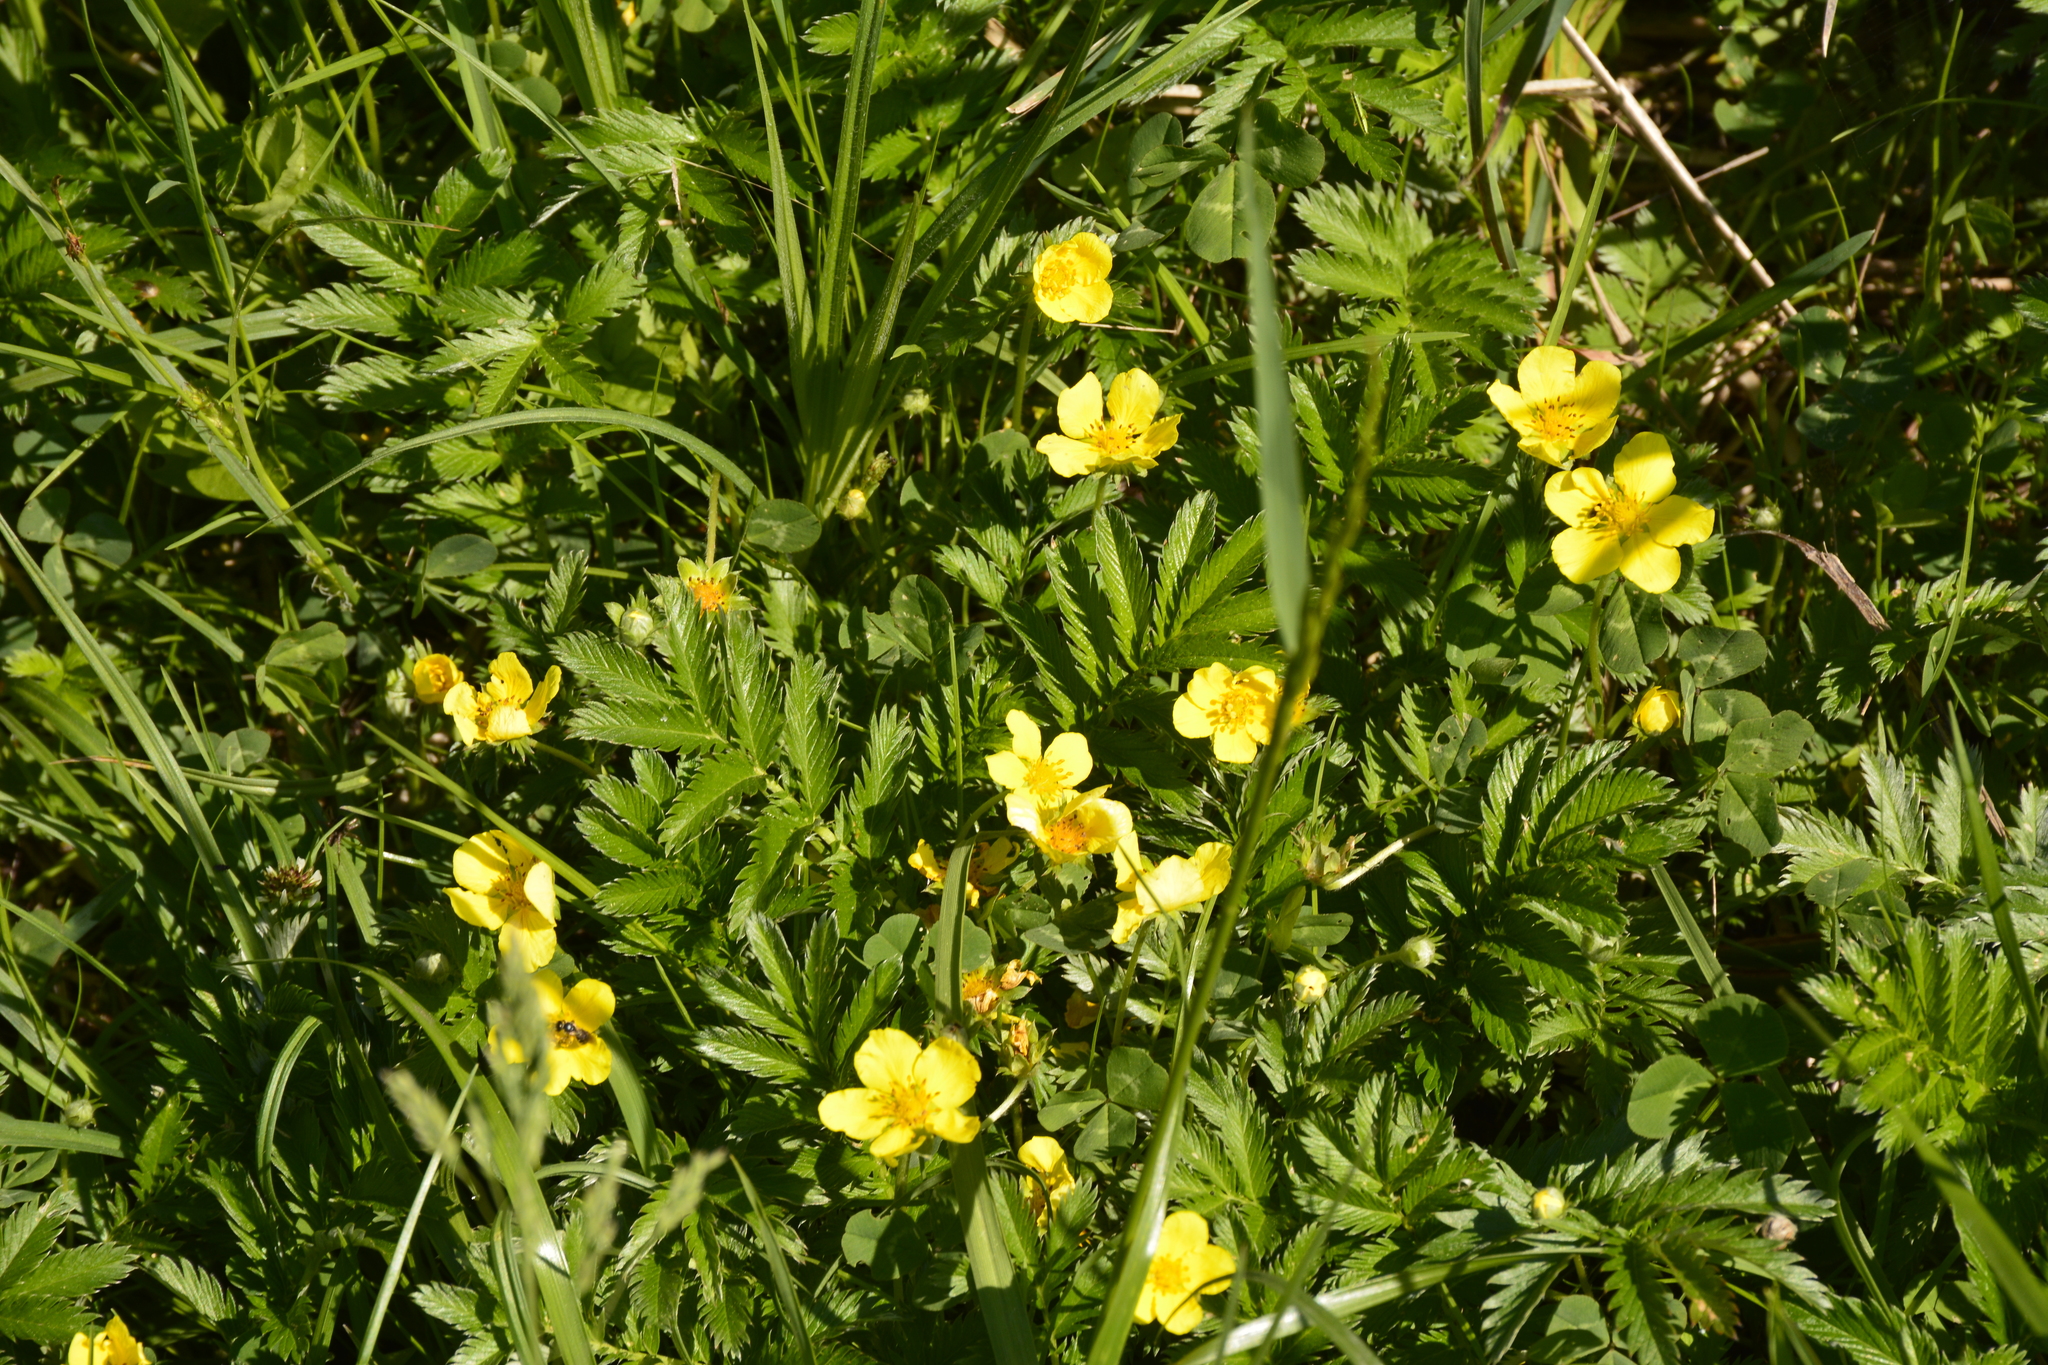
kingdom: Plantae
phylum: Tracheophyta
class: Magnoliopsida
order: Rosales
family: Rosaceae
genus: Argentina
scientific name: Argentina anserina
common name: Common silverweed
